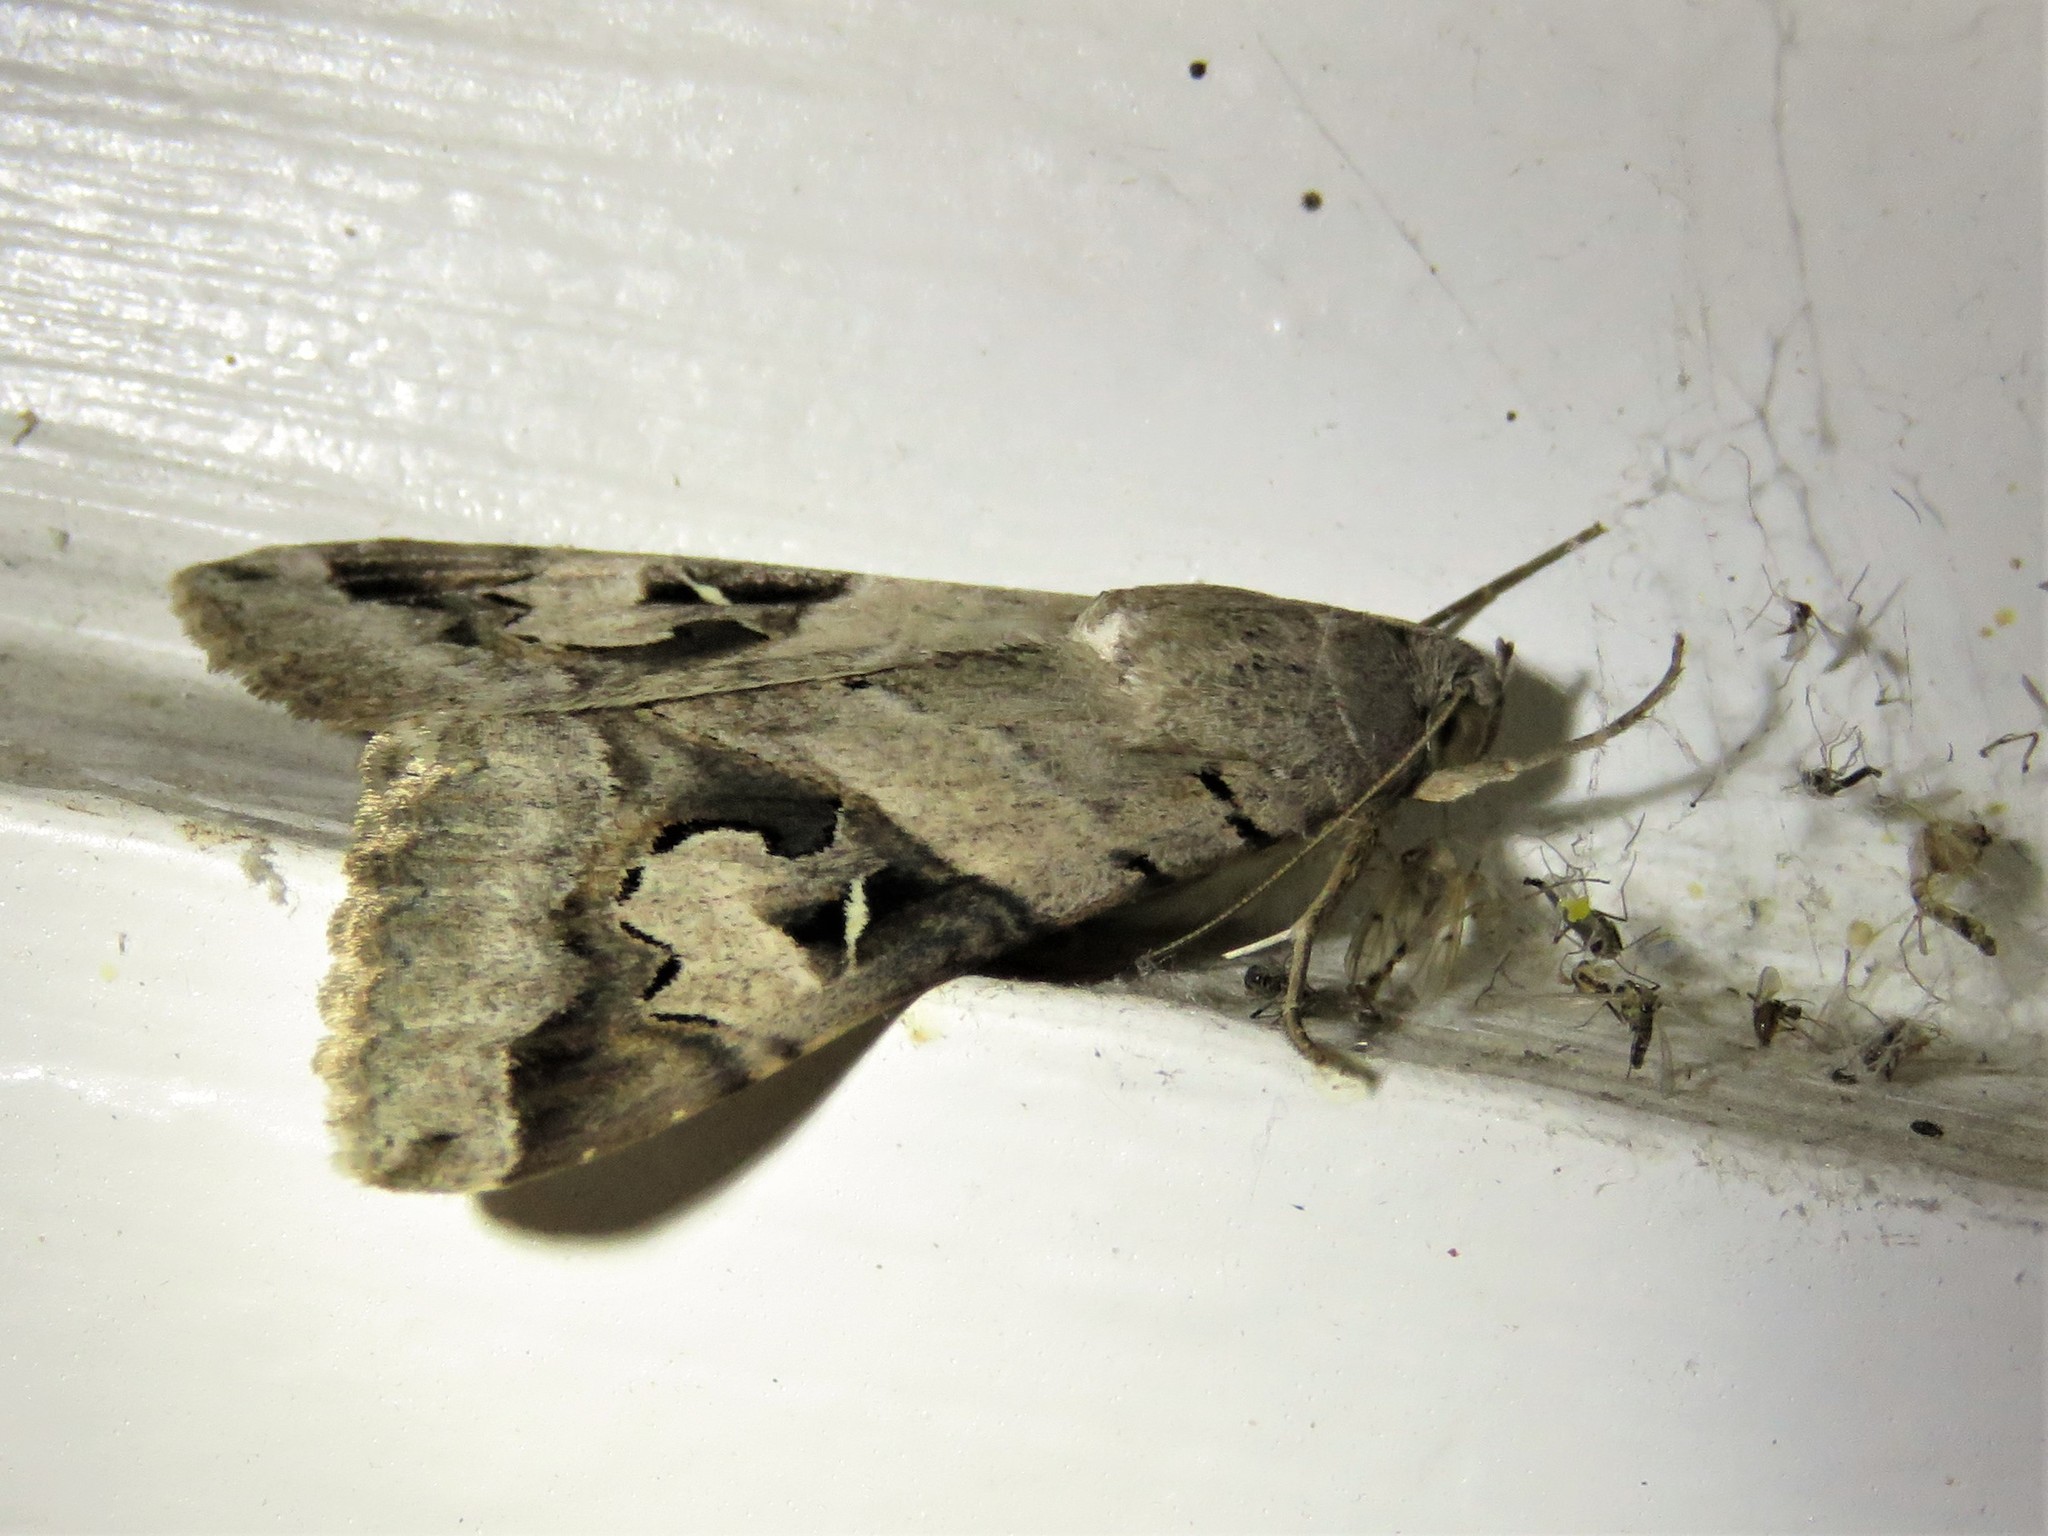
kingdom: Animalia
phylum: Arthropoda
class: Insecta
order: Lepidoptera
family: Erebidae
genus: Melipotis
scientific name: Melipotis indomita
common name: Moth
